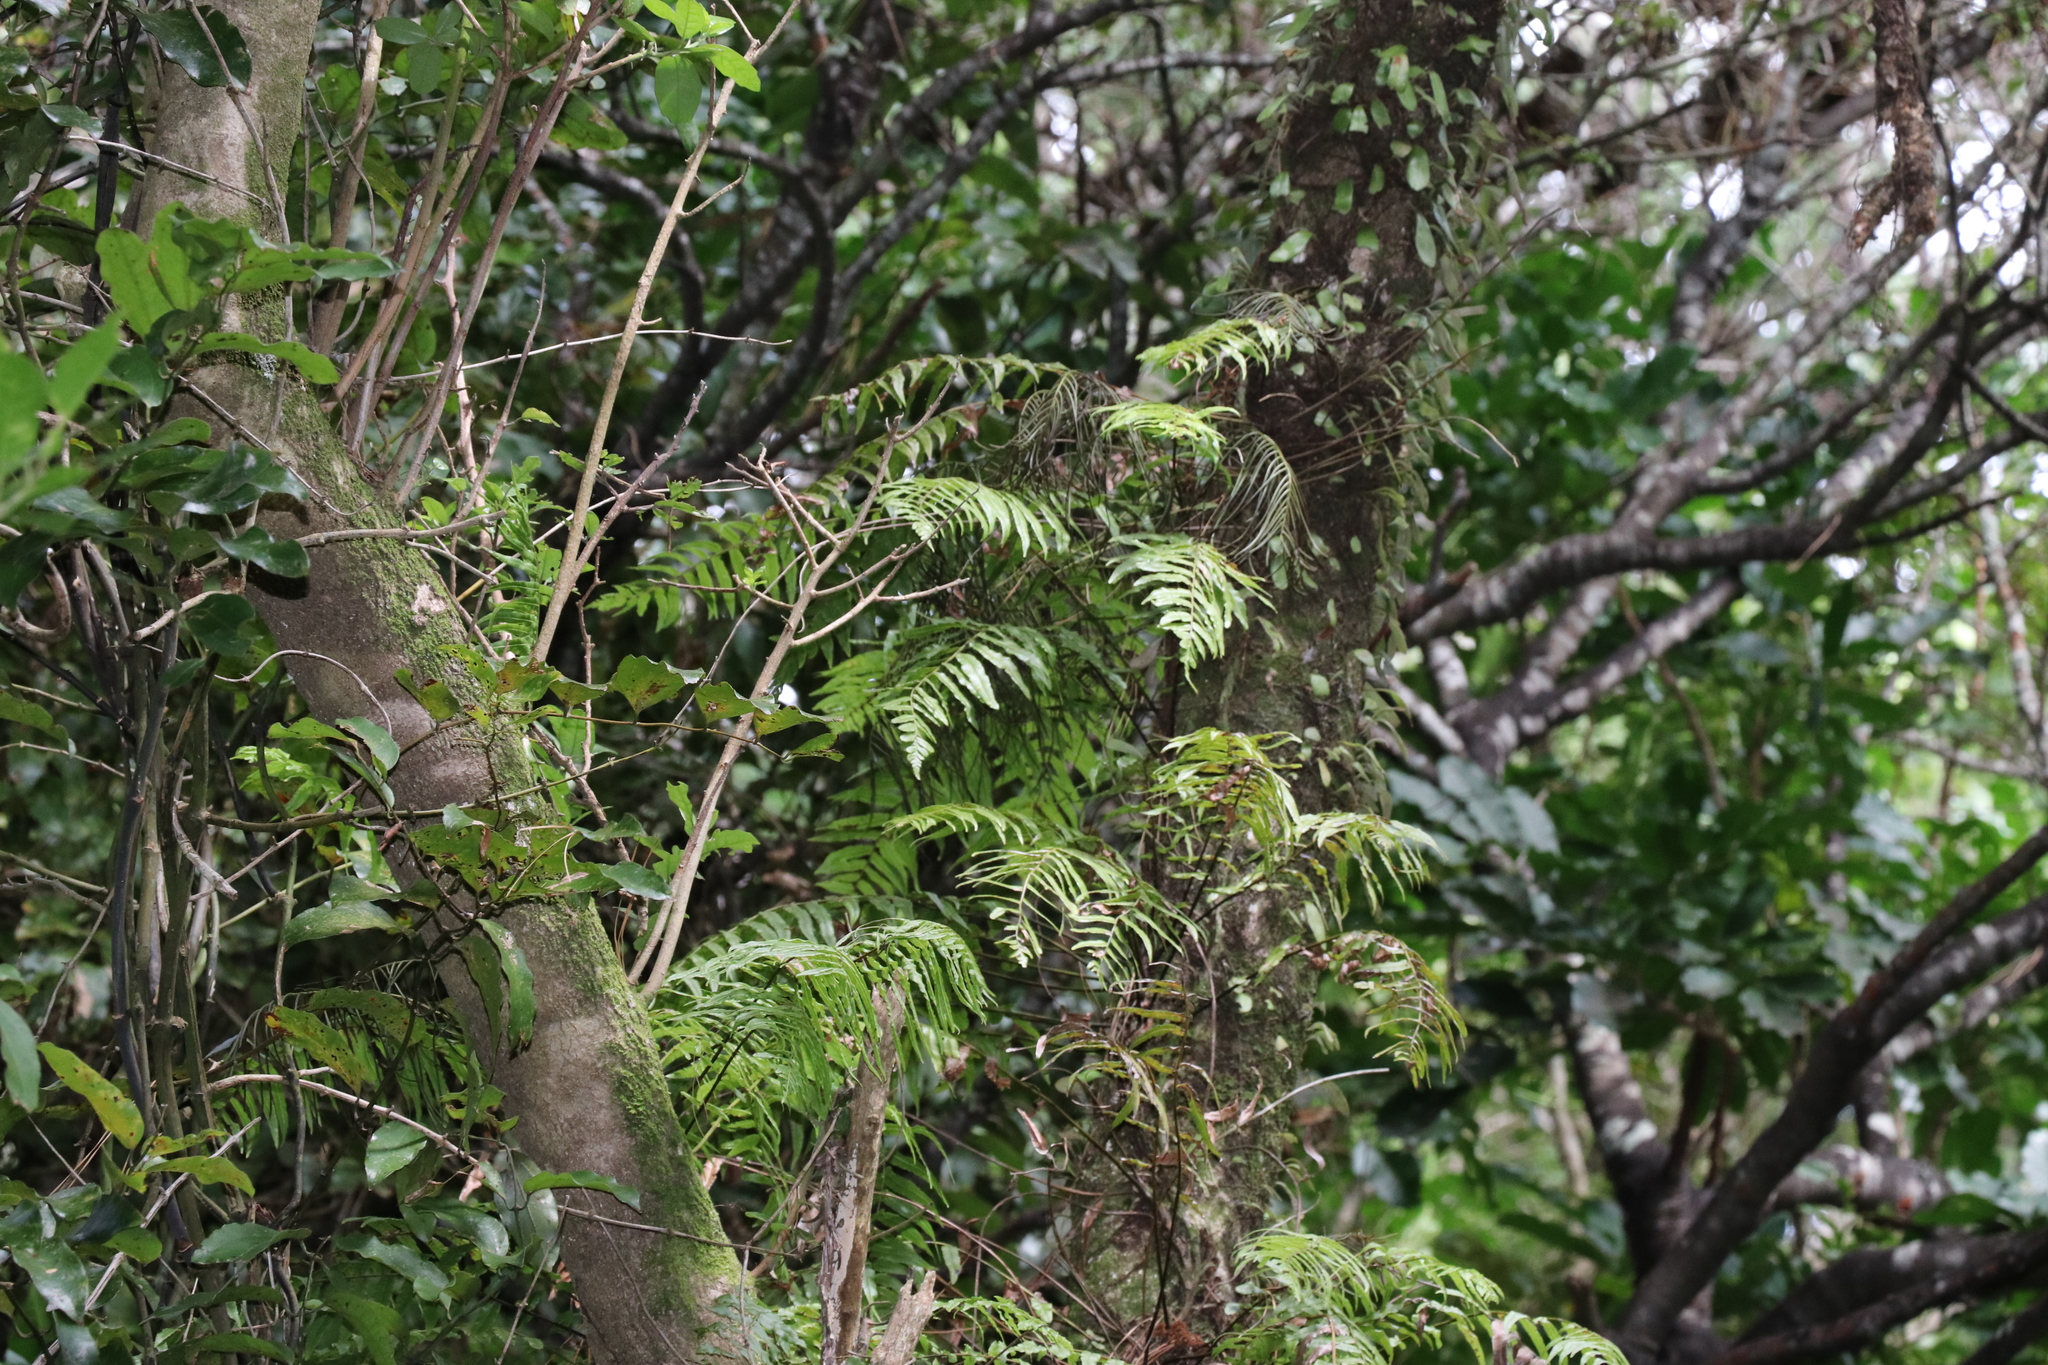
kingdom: Plantae
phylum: Tracheophyta
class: Polypodiopsida
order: Polypodiales
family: Blechnaceae
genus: Icarus
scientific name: Icarus filiformis
